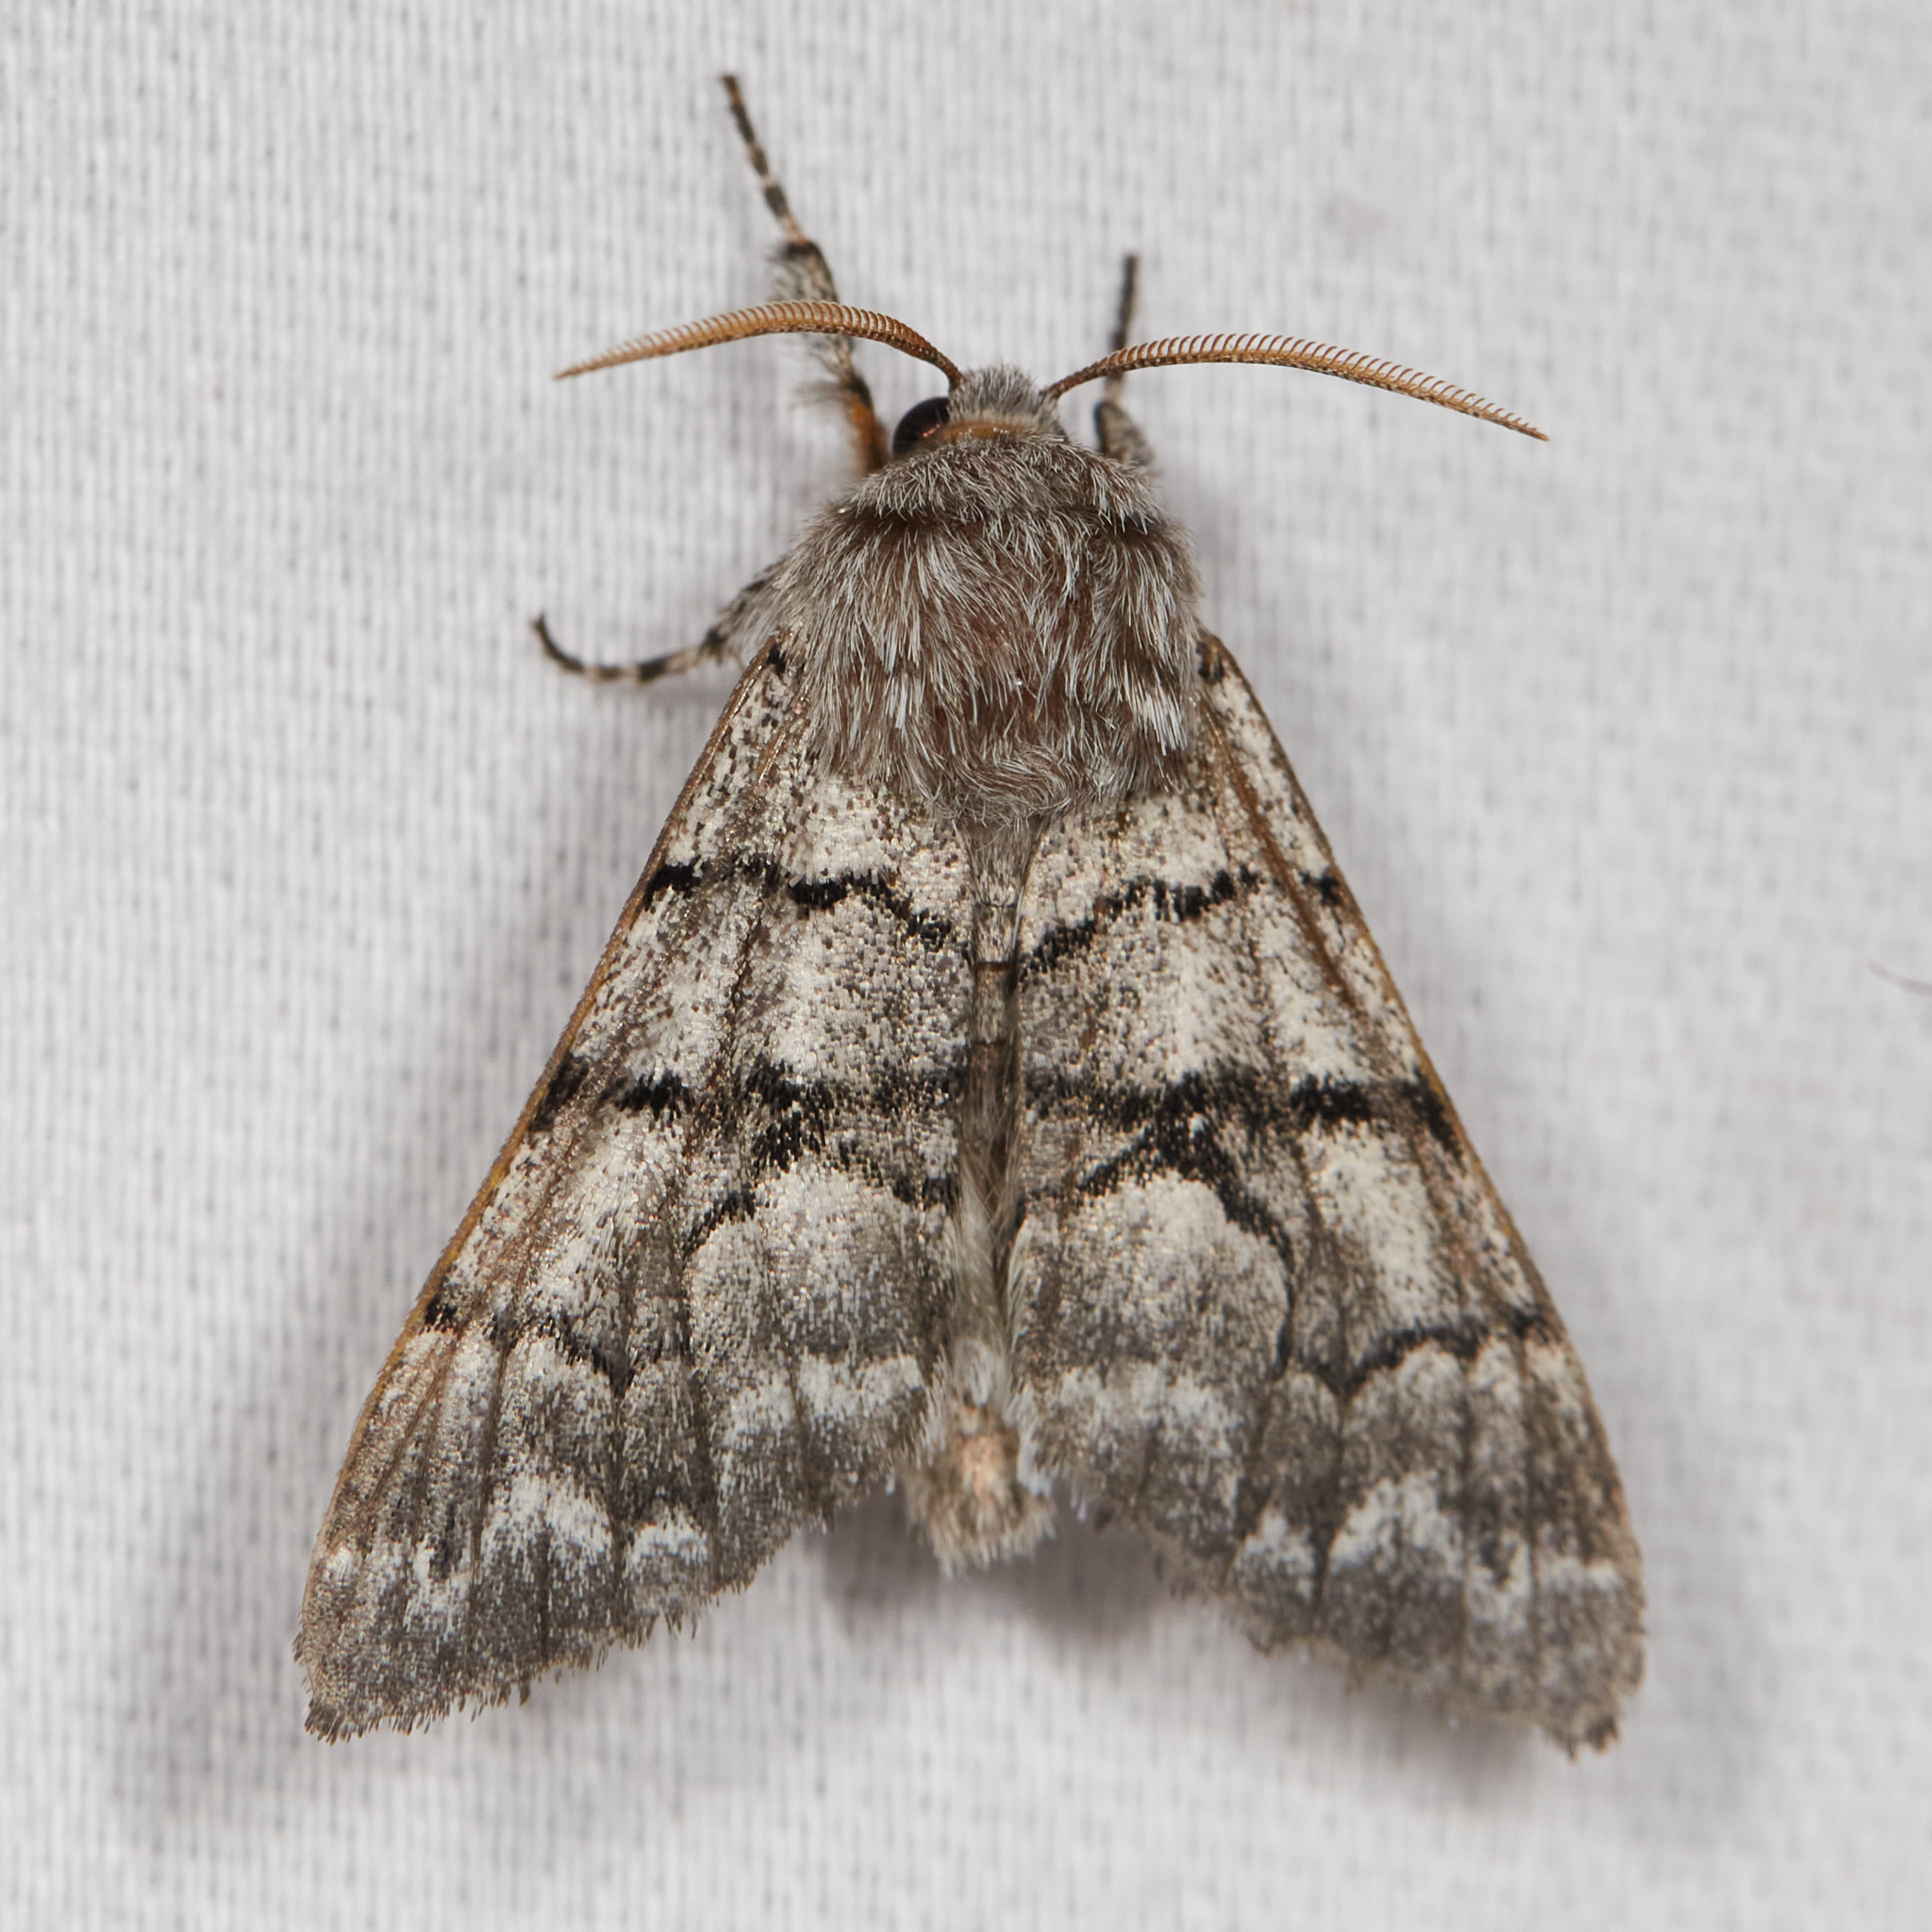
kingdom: Animalia
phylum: Arthropoda
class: Insecta
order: Lepidoptera
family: Noctuidae
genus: Panthea
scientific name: Panthea furcilla
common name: Eastern panthea moth
